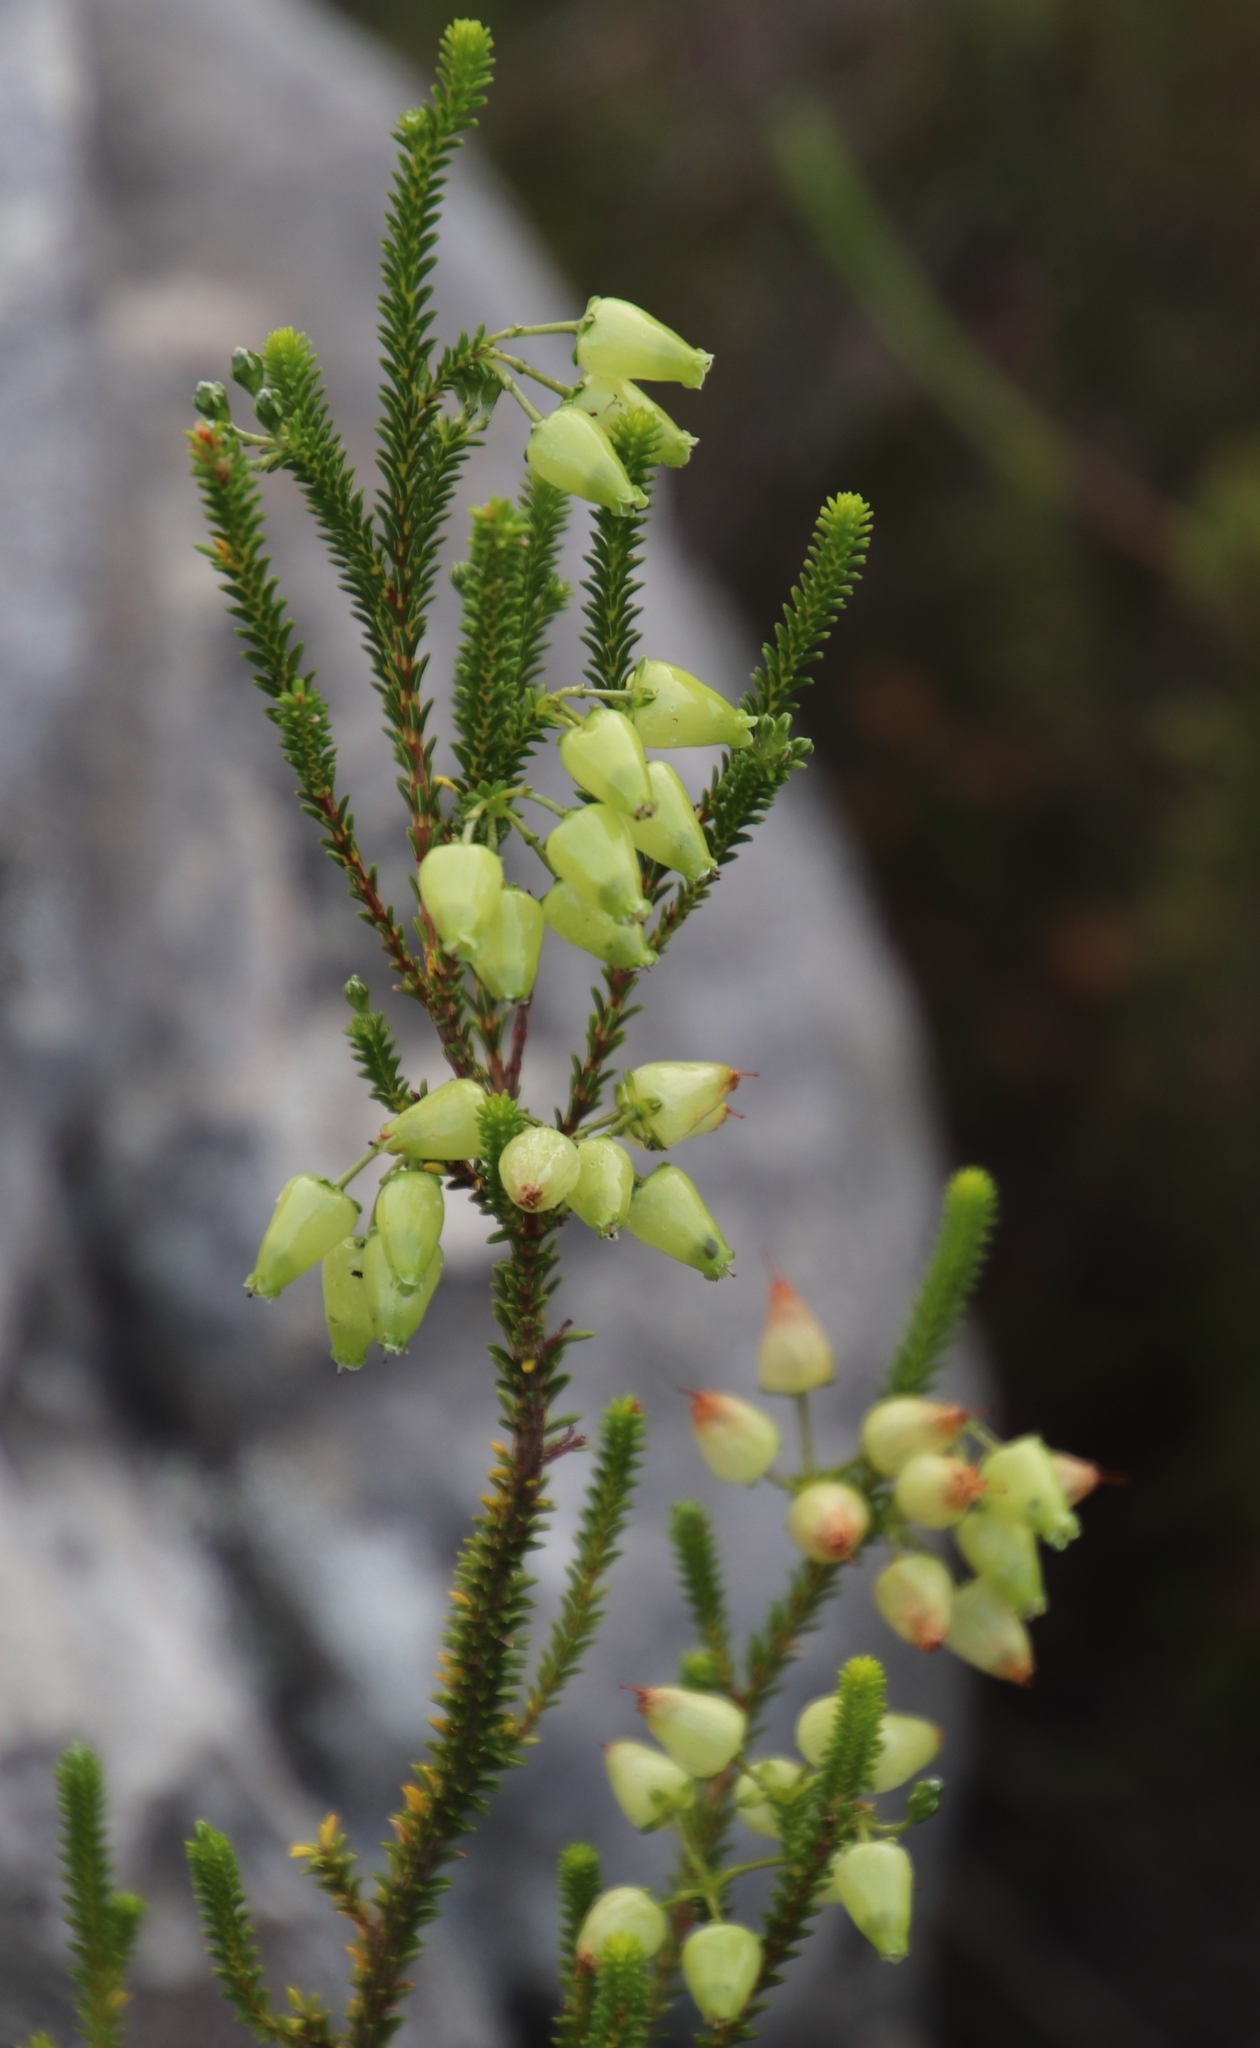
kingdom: Plantae
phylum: Tracheophyta
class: Magnoliopsida
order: Ericales
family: Ericaceae
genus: Erica
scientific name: Erica urna-viridis
